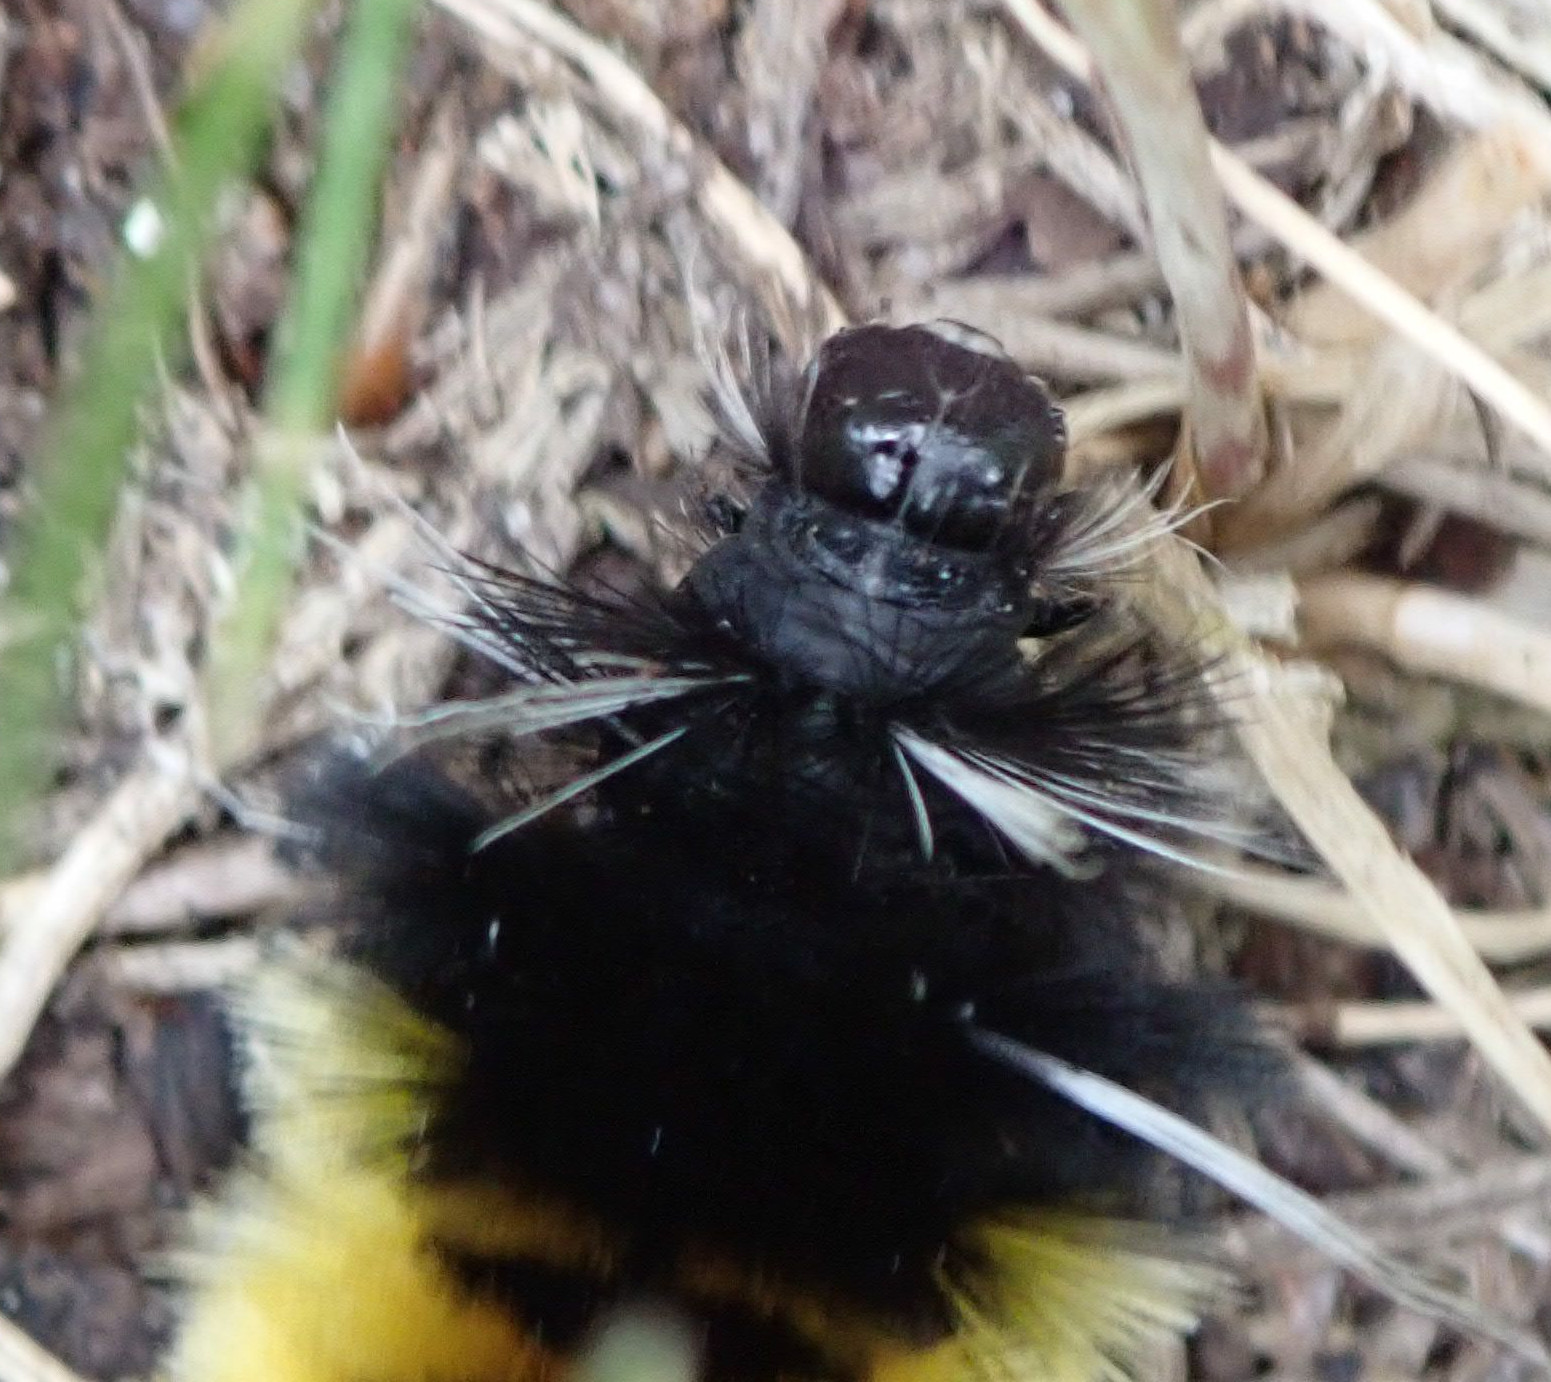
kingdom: Animalia
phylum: Arthropoda
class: Insecta
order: Lepidoptera
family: Erebidae
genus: Lophocampa
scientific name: Lophocampa maculata
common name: Spotted tussock moth
